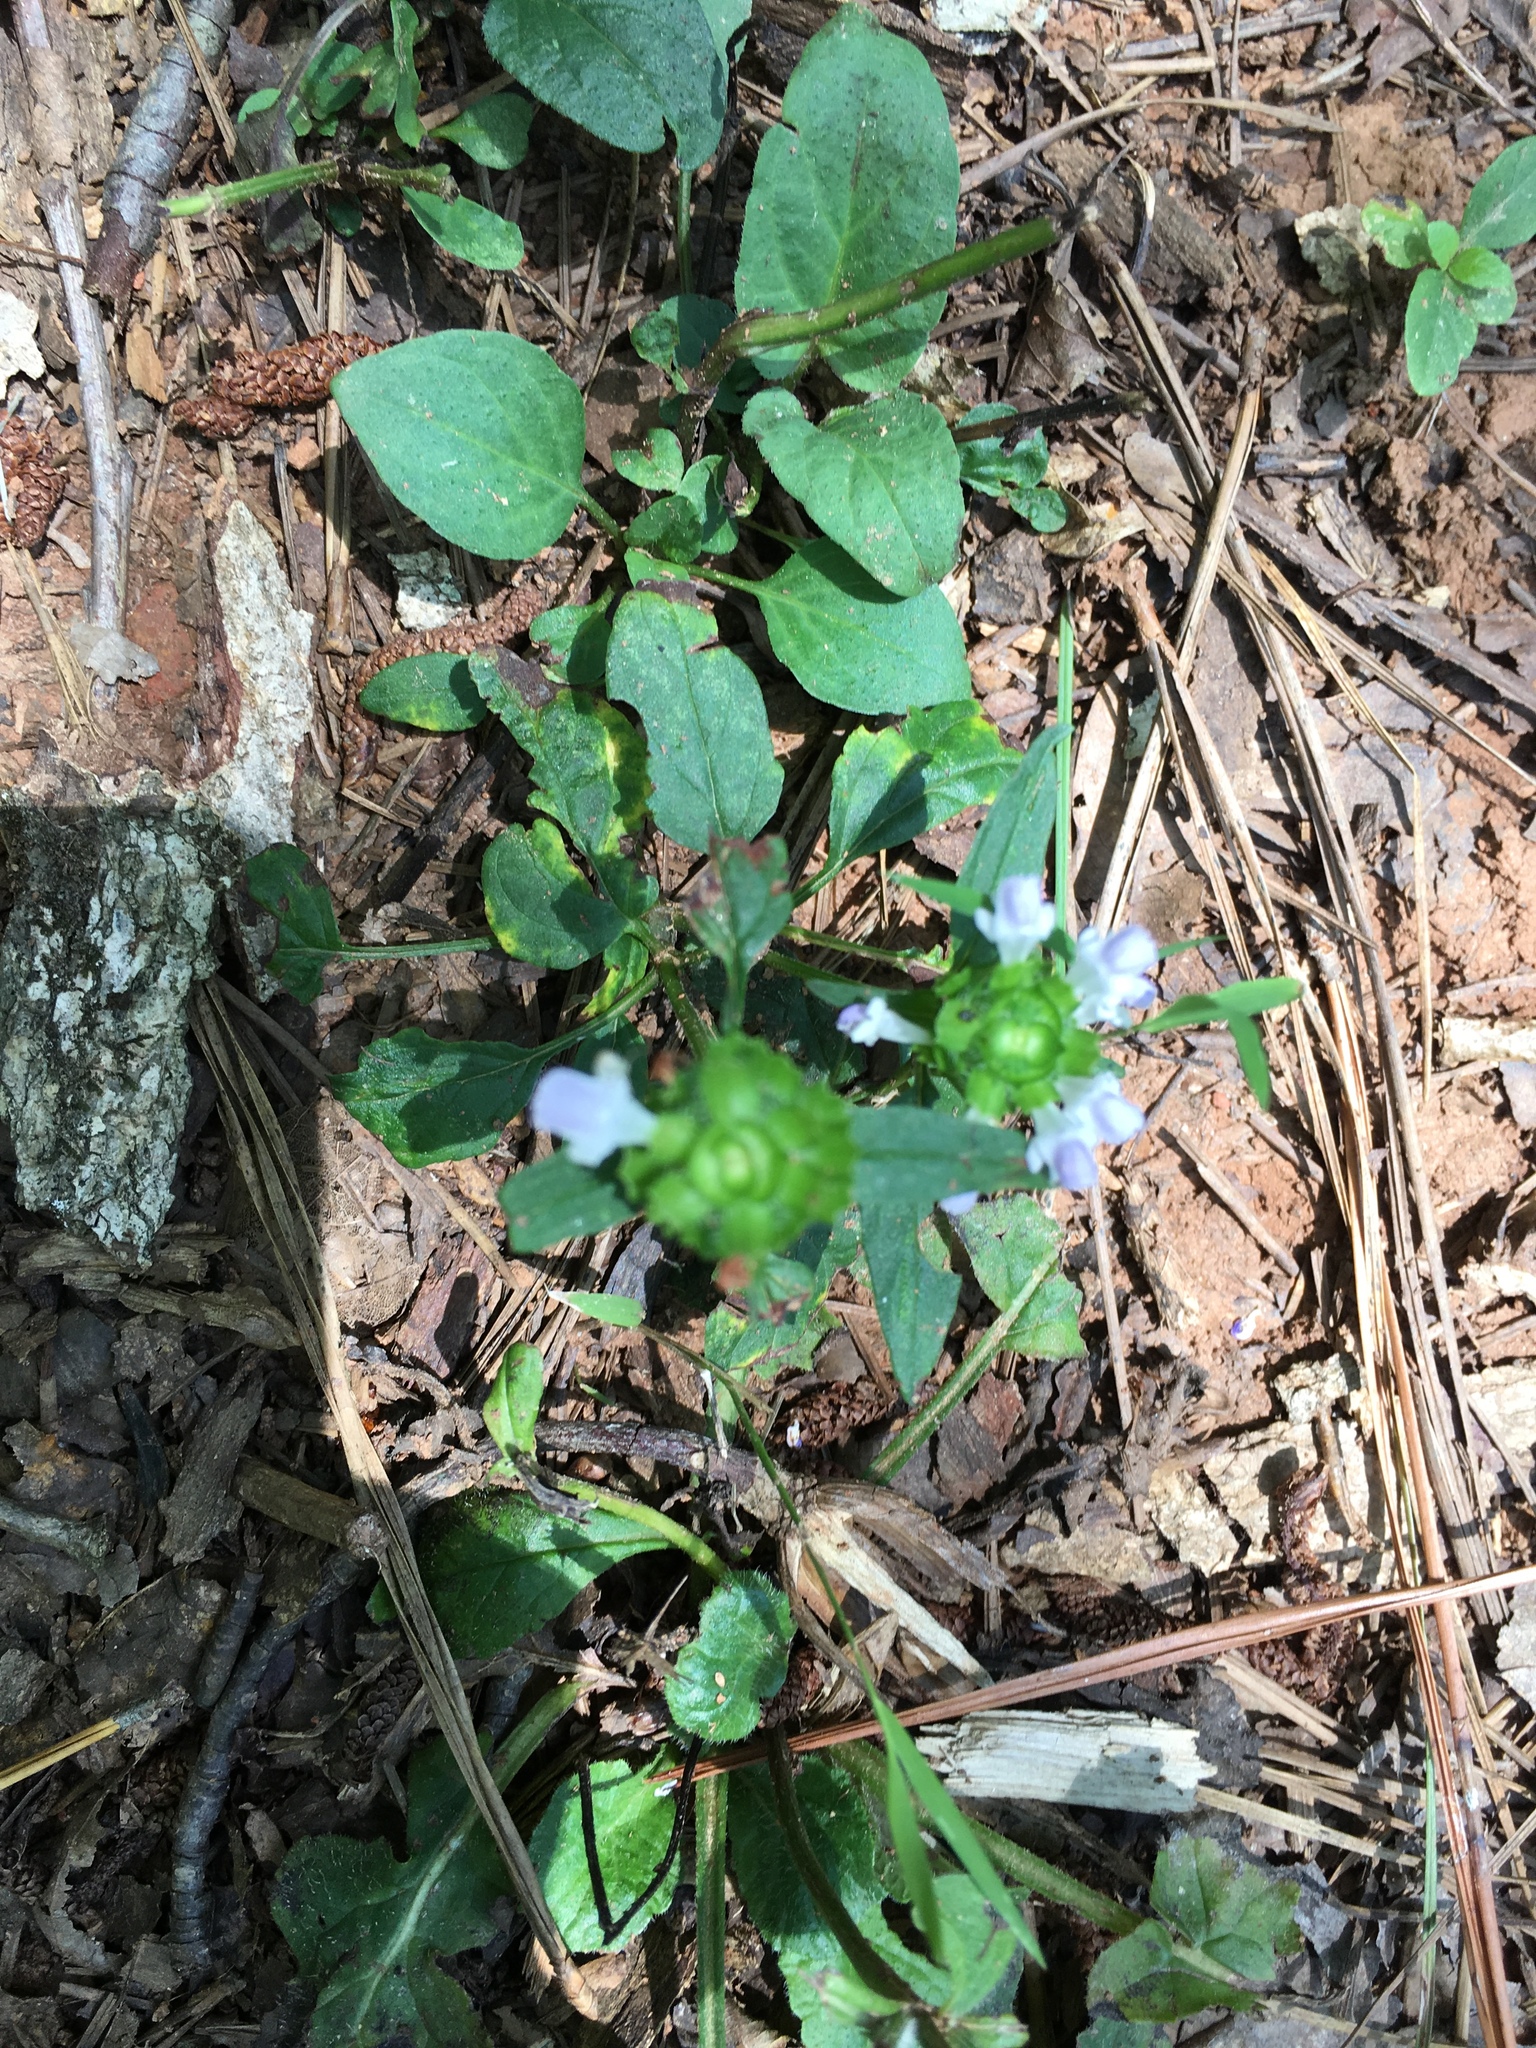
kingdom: Plantae
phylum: Tracheophyta
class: Magnoliopsida
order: Lamiales
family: Lamiaceae
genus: Prunella
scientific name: Prunella vulgaris
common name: Heal-all
